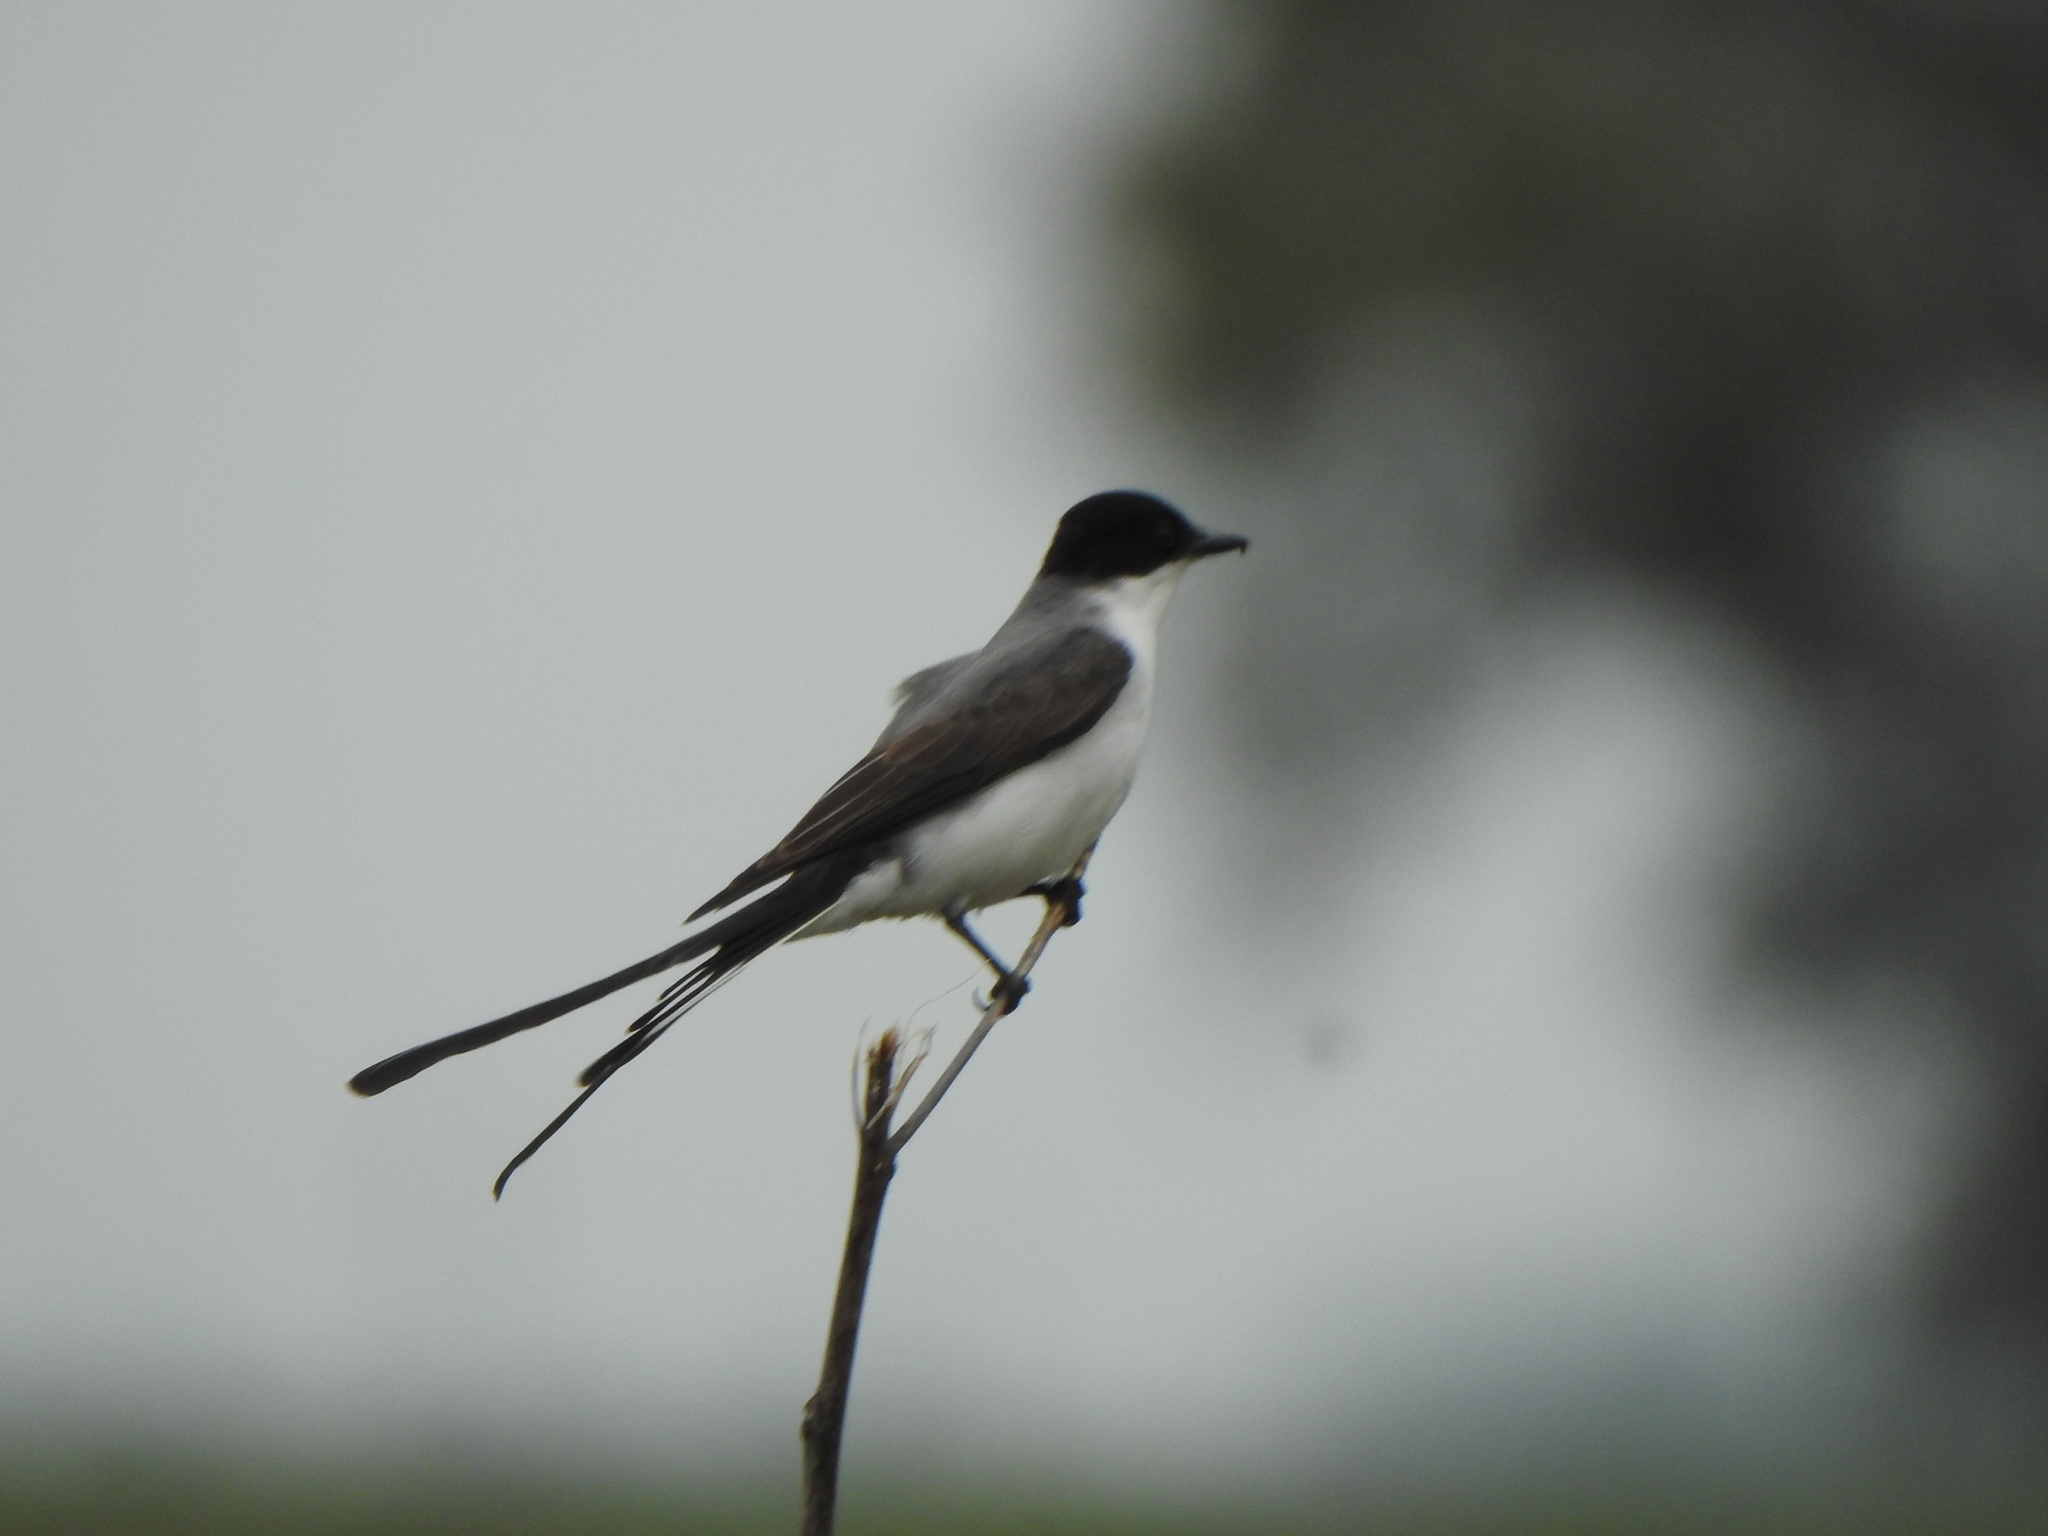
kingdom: Animalia
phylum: Chordata
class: Aves
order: Passeriformes
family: Tyrannidae
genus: Tyrannus
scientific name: Tyrannus savana
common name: Fork-tailed flycatcher
